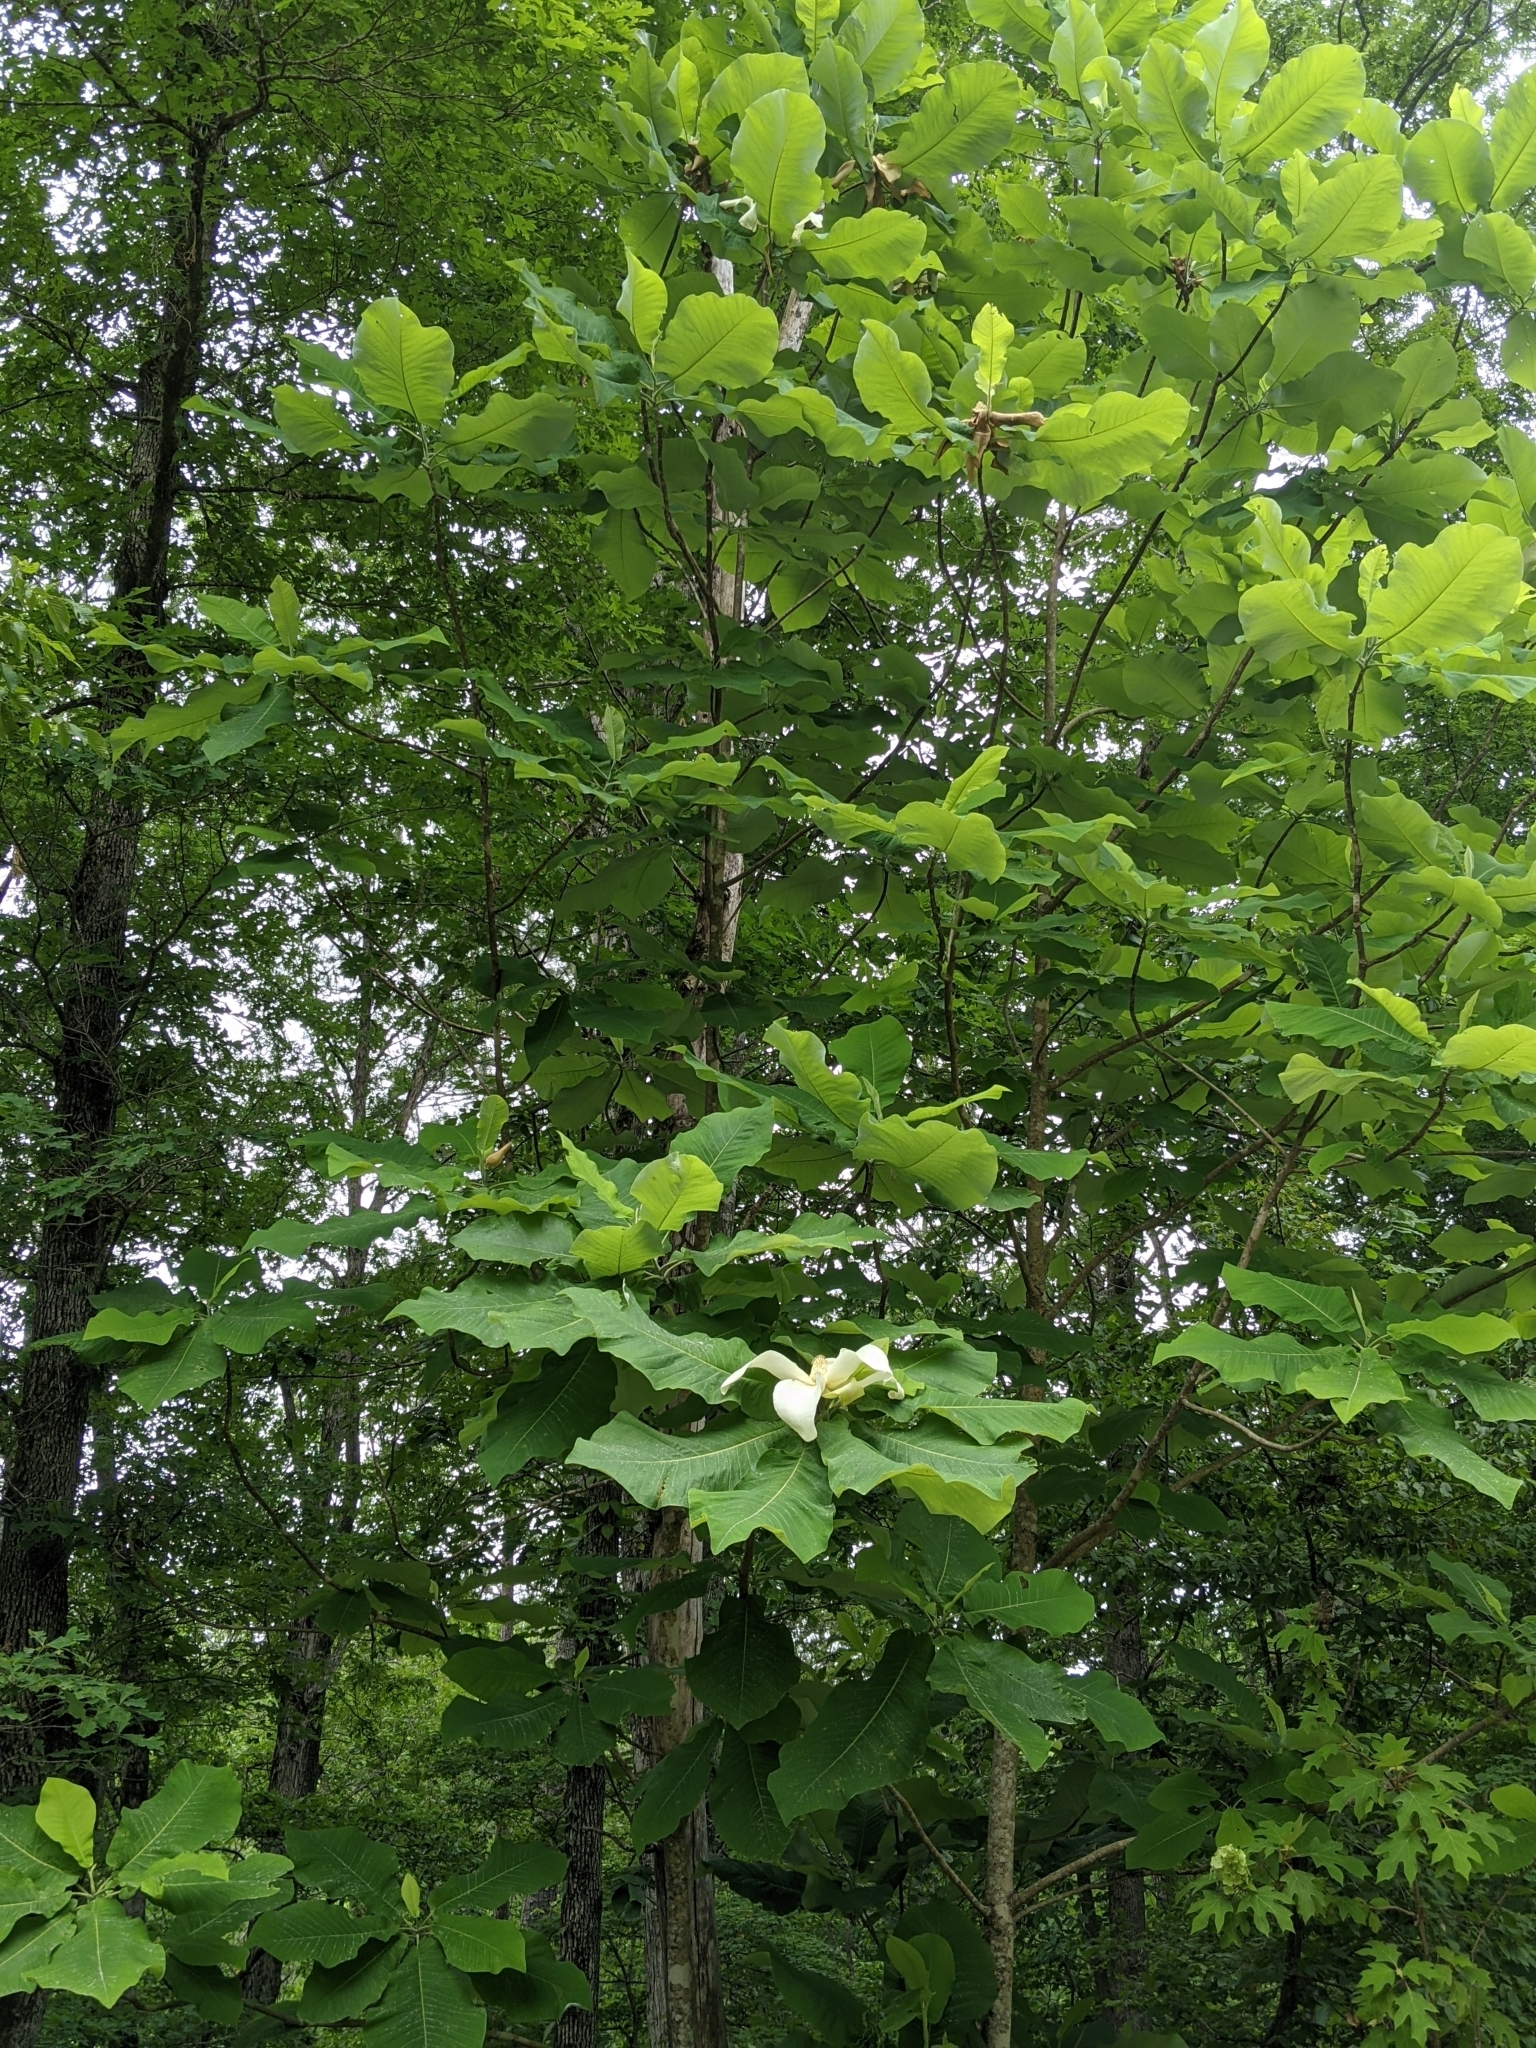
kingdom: Plantae
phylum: Tracheophyta
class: Magnoliopsida
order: Magnoliales
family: Magnoliaceae
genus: Magnolia
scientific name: Magnolia macrophylla
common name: Big-leaf magnolia
